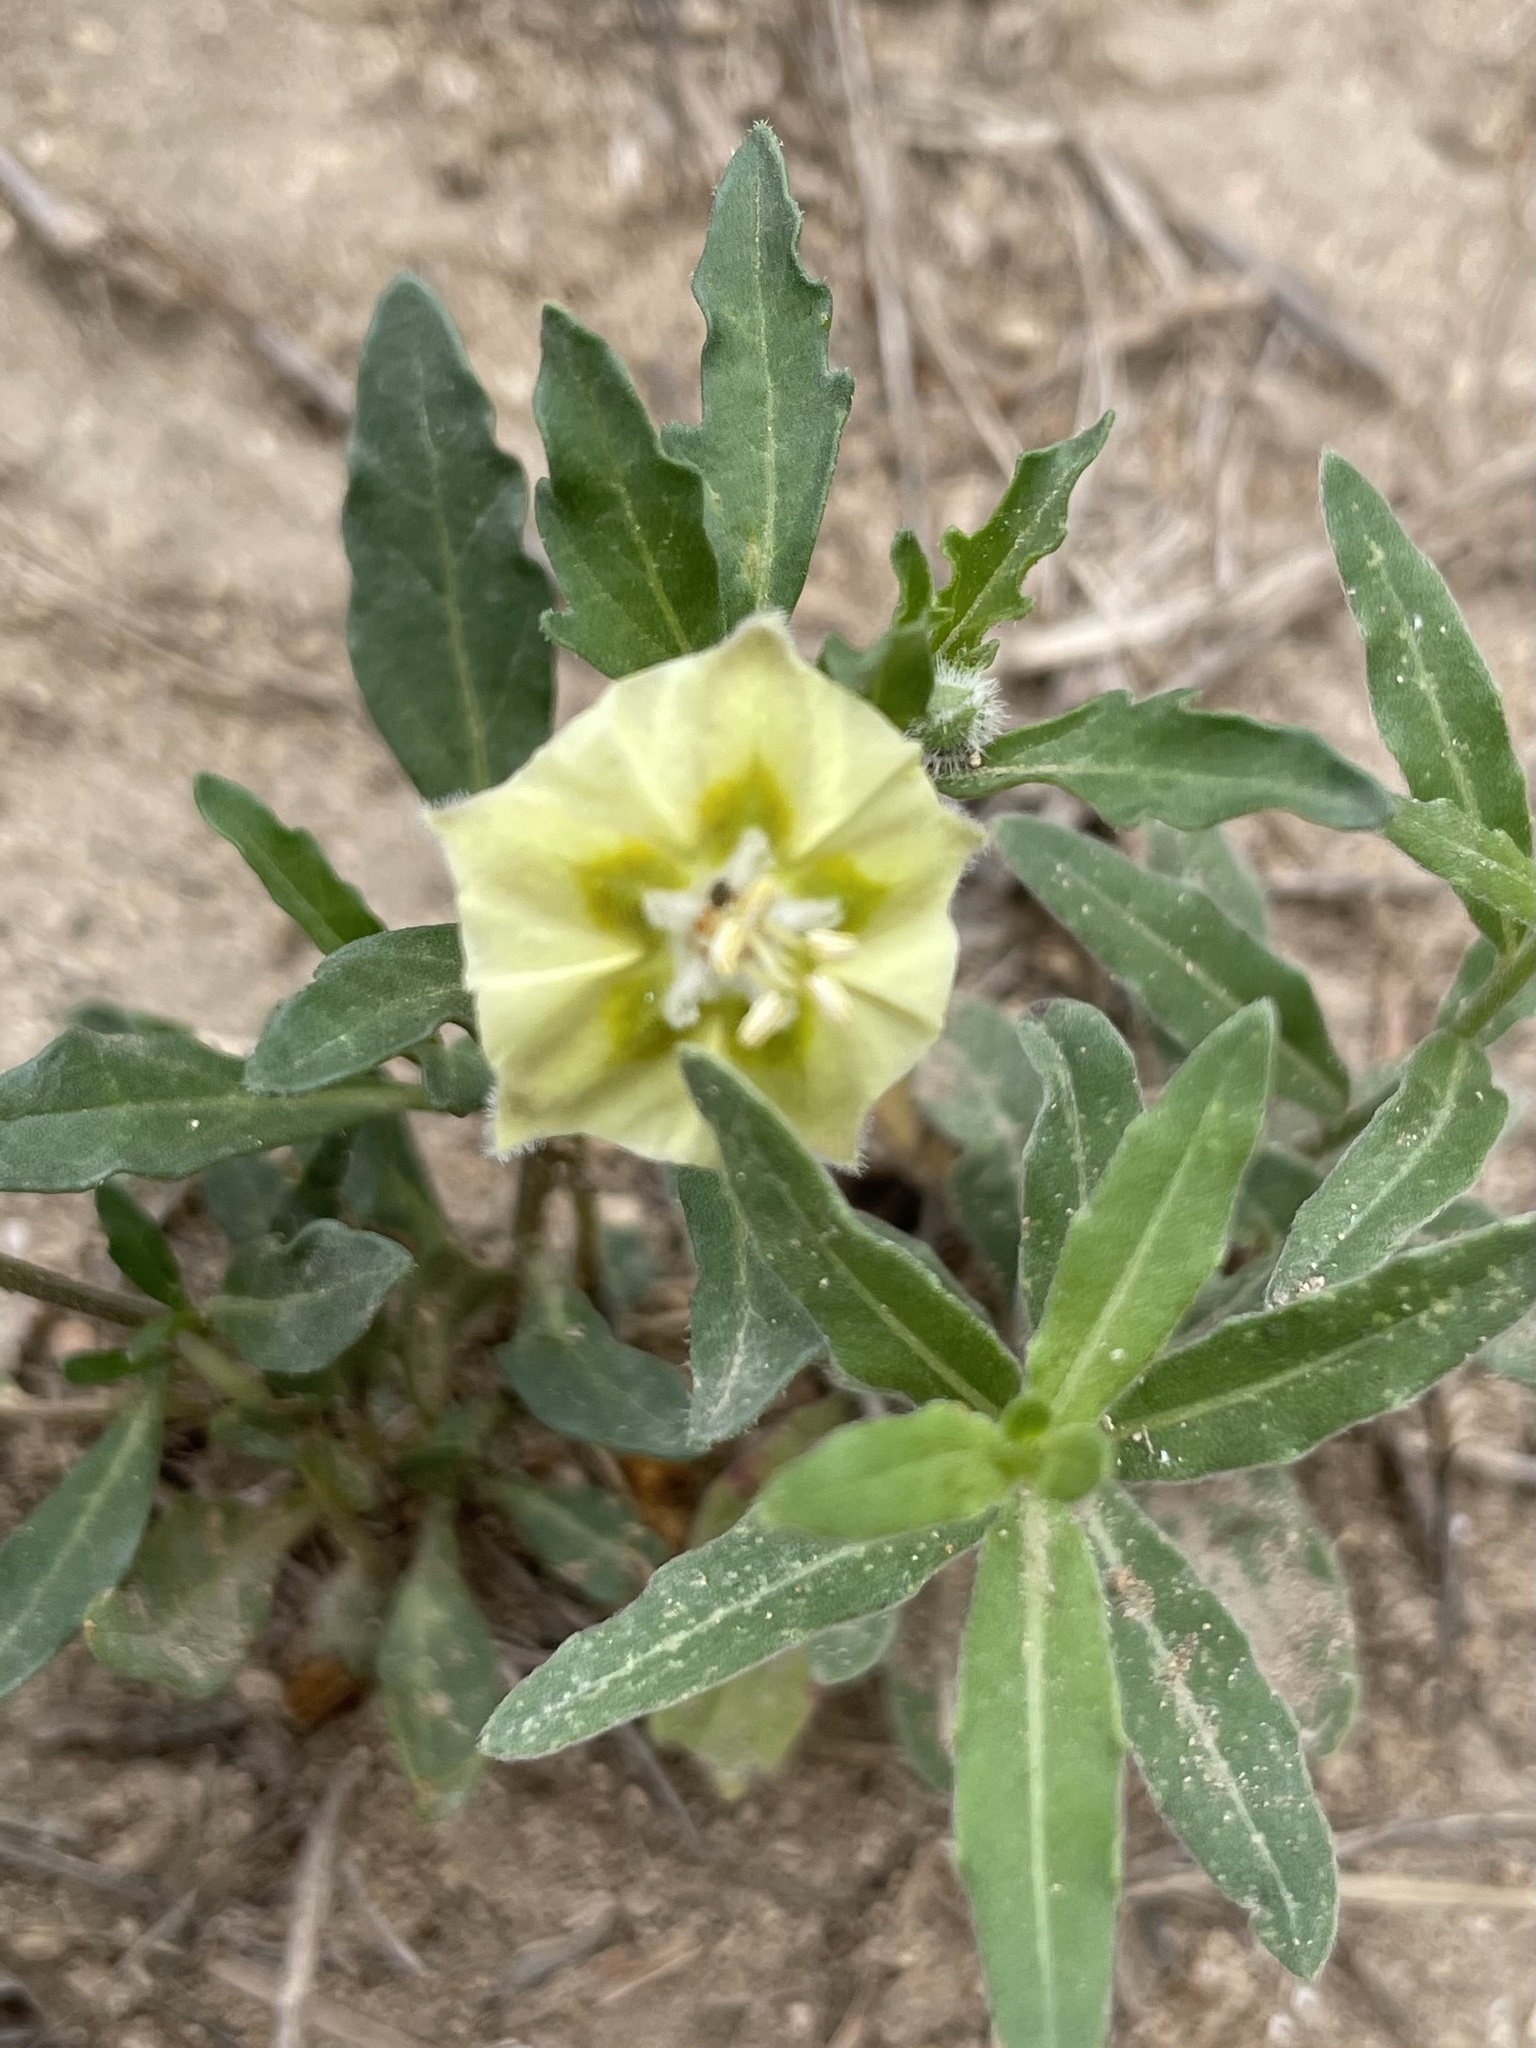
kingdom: Plantae
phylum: Tracheophyta
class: Magnoliopsida
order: Solanales
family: Solanaceae
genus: Chamaesaracha
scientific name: Chamaesaracha edwardsiana
